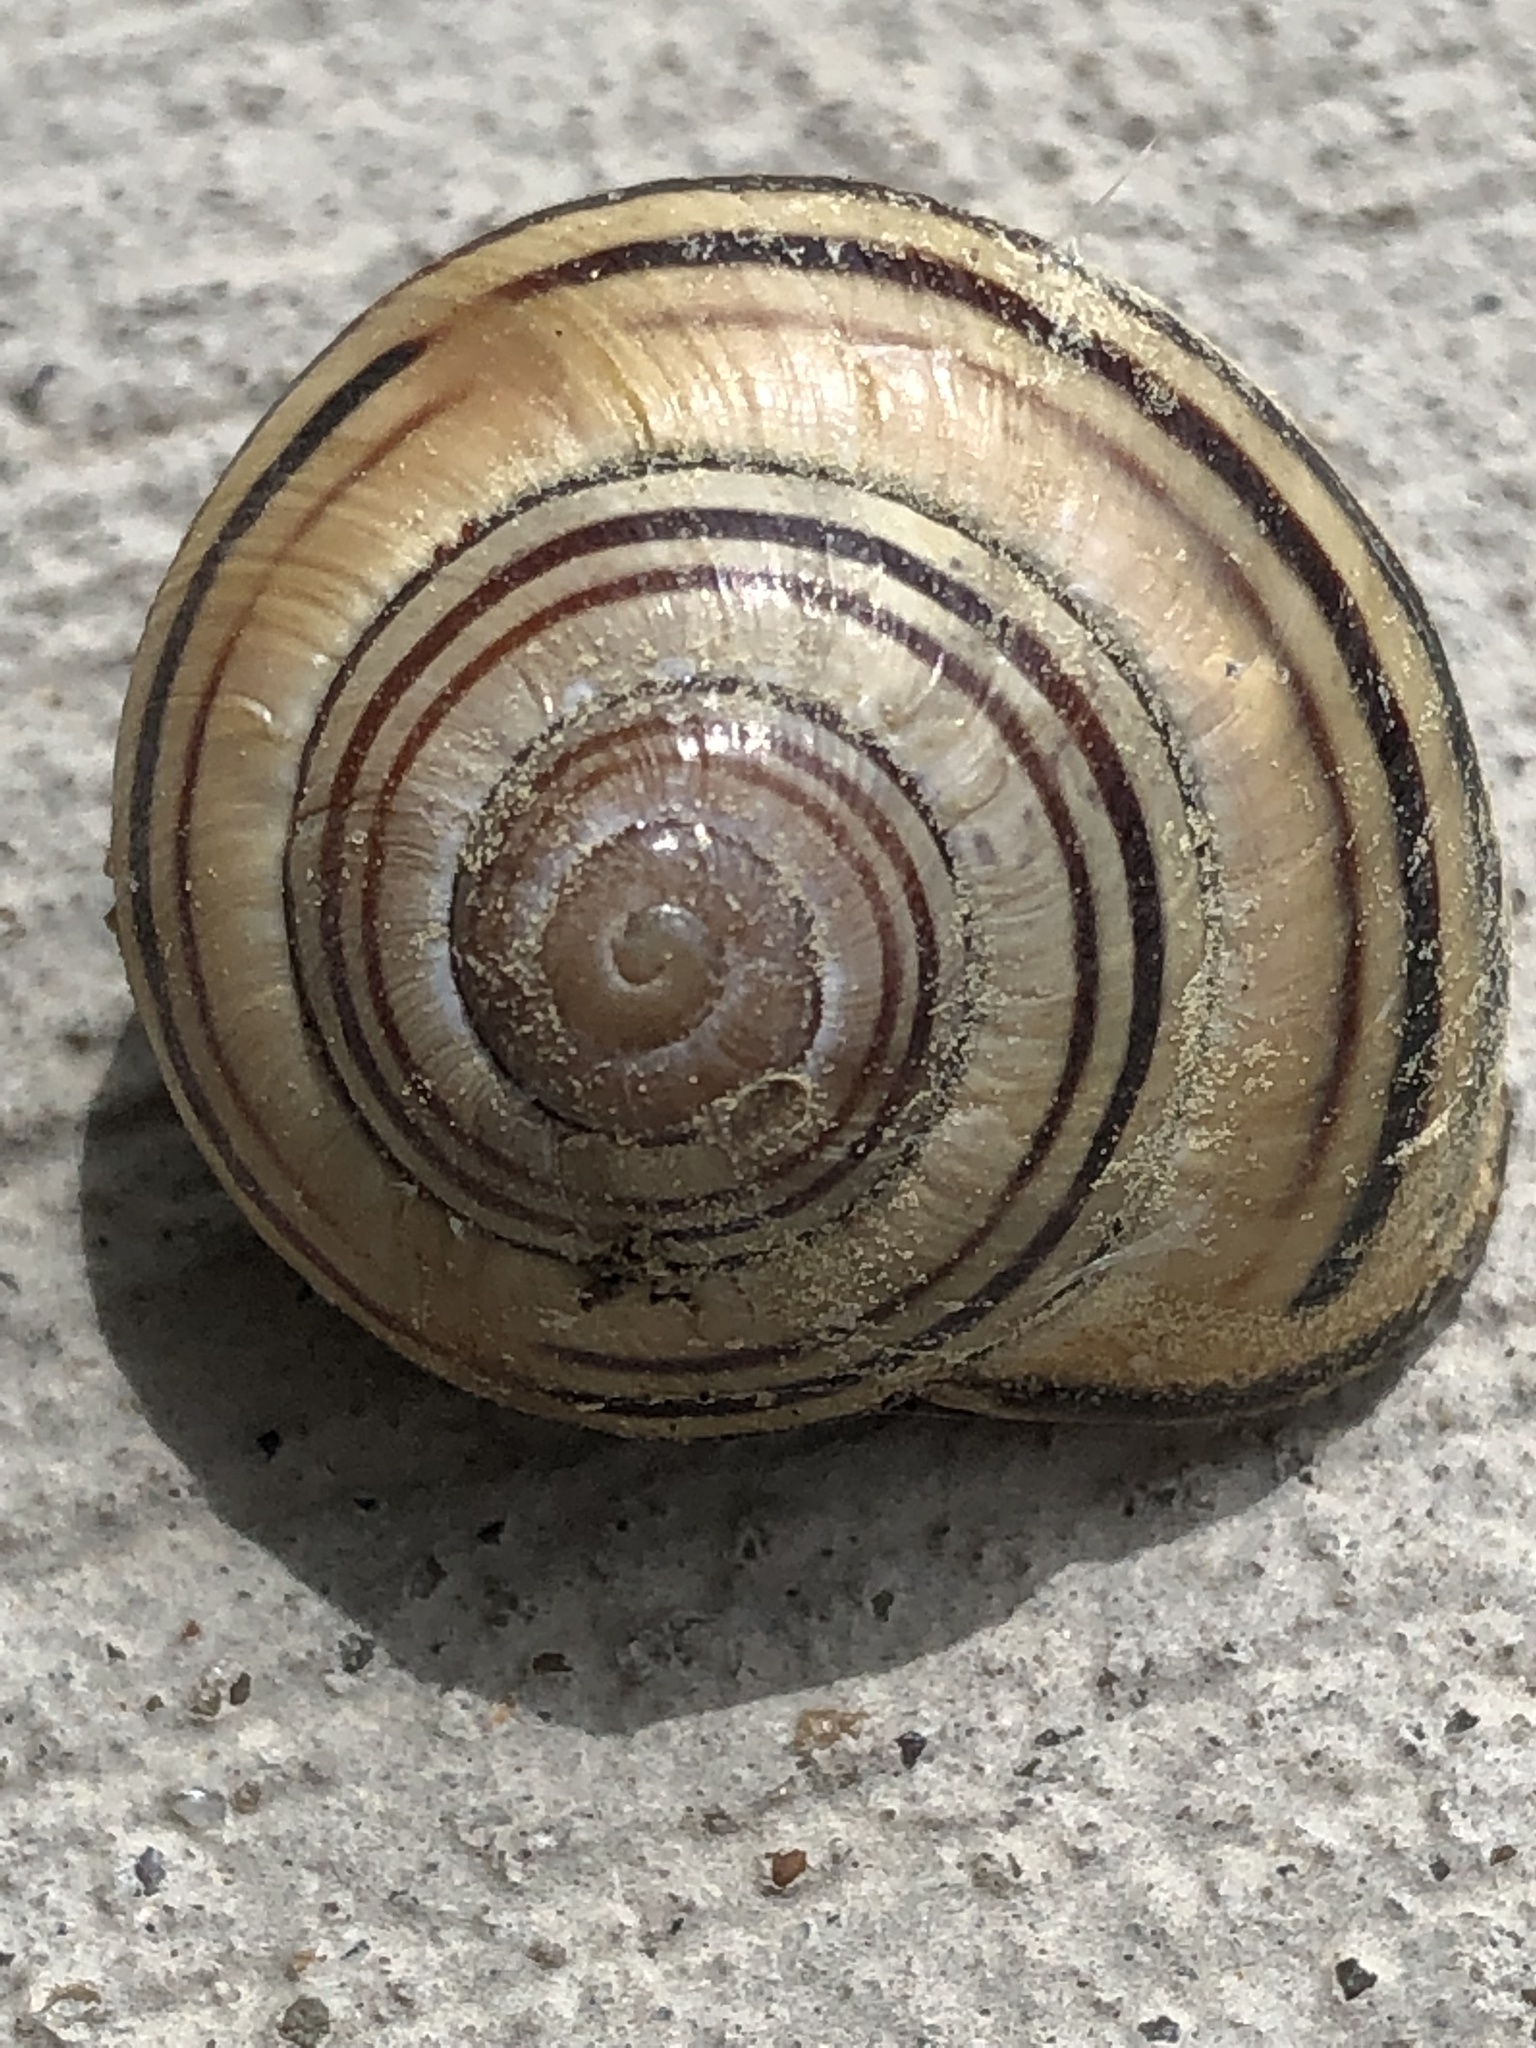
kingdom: Animalia
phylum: Mollusca
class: Gastropoda
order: Stylommatophora
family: Helicidae
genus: Cepaea
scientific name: Cepaea nemoralis
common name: Grovesnail
